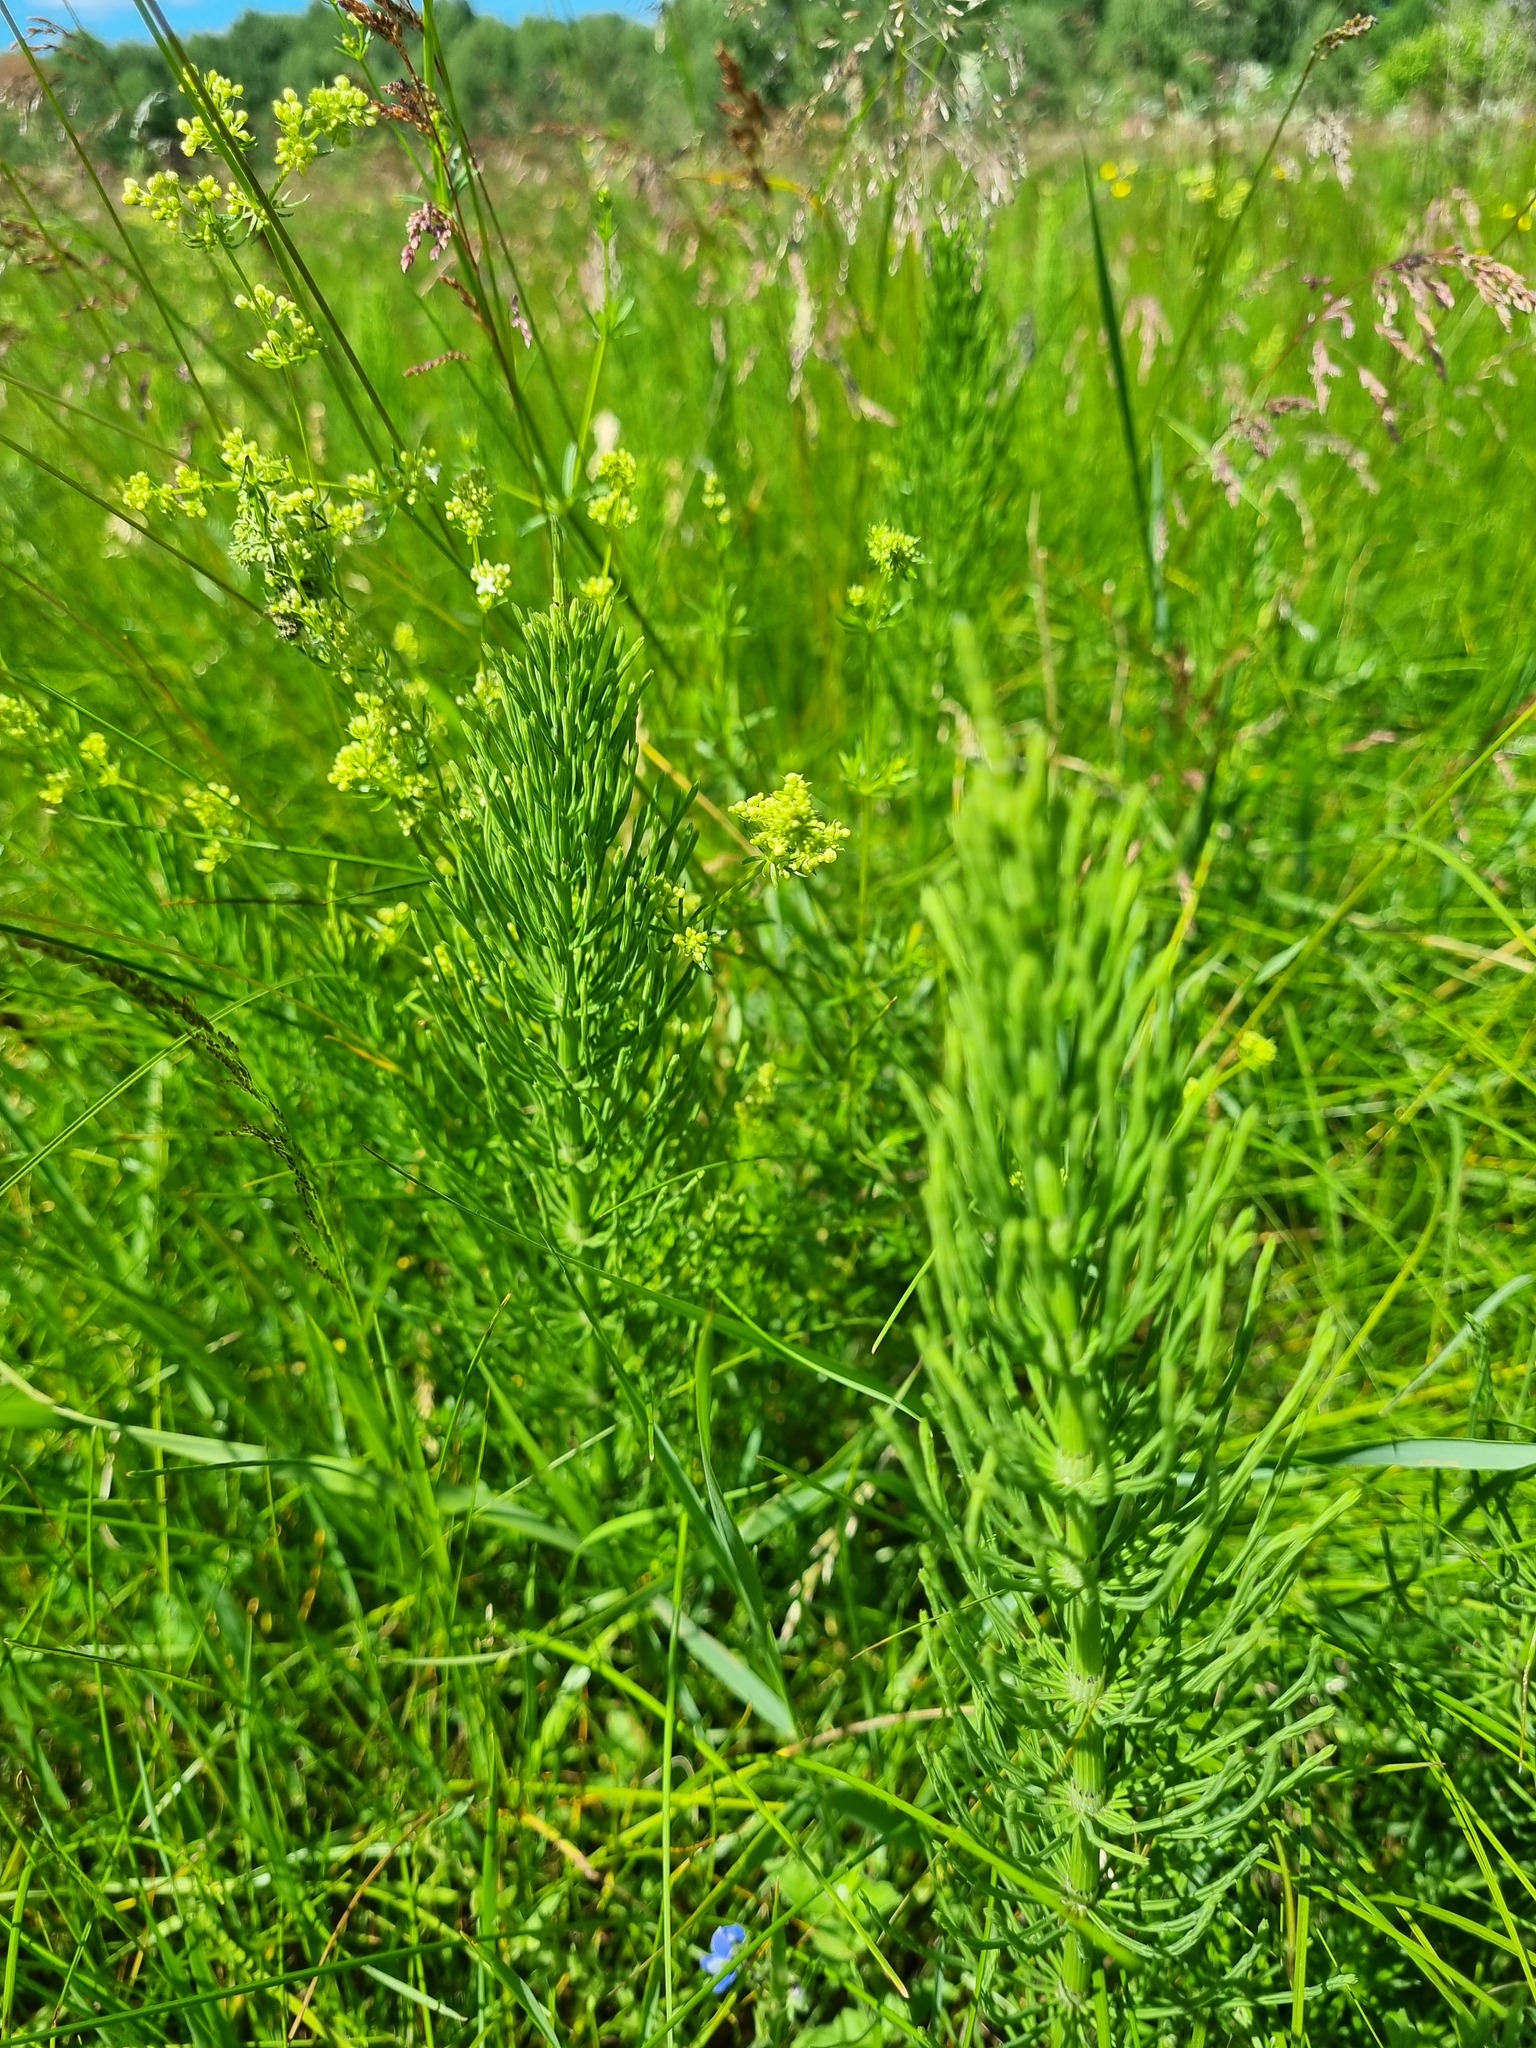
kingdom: Plantae
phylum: Tracheophyta
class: Polypodiopsida
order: Equisetales
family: Equisetaceae
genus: Equisetum
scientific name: Equisetum arvense
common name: Field horsetail
